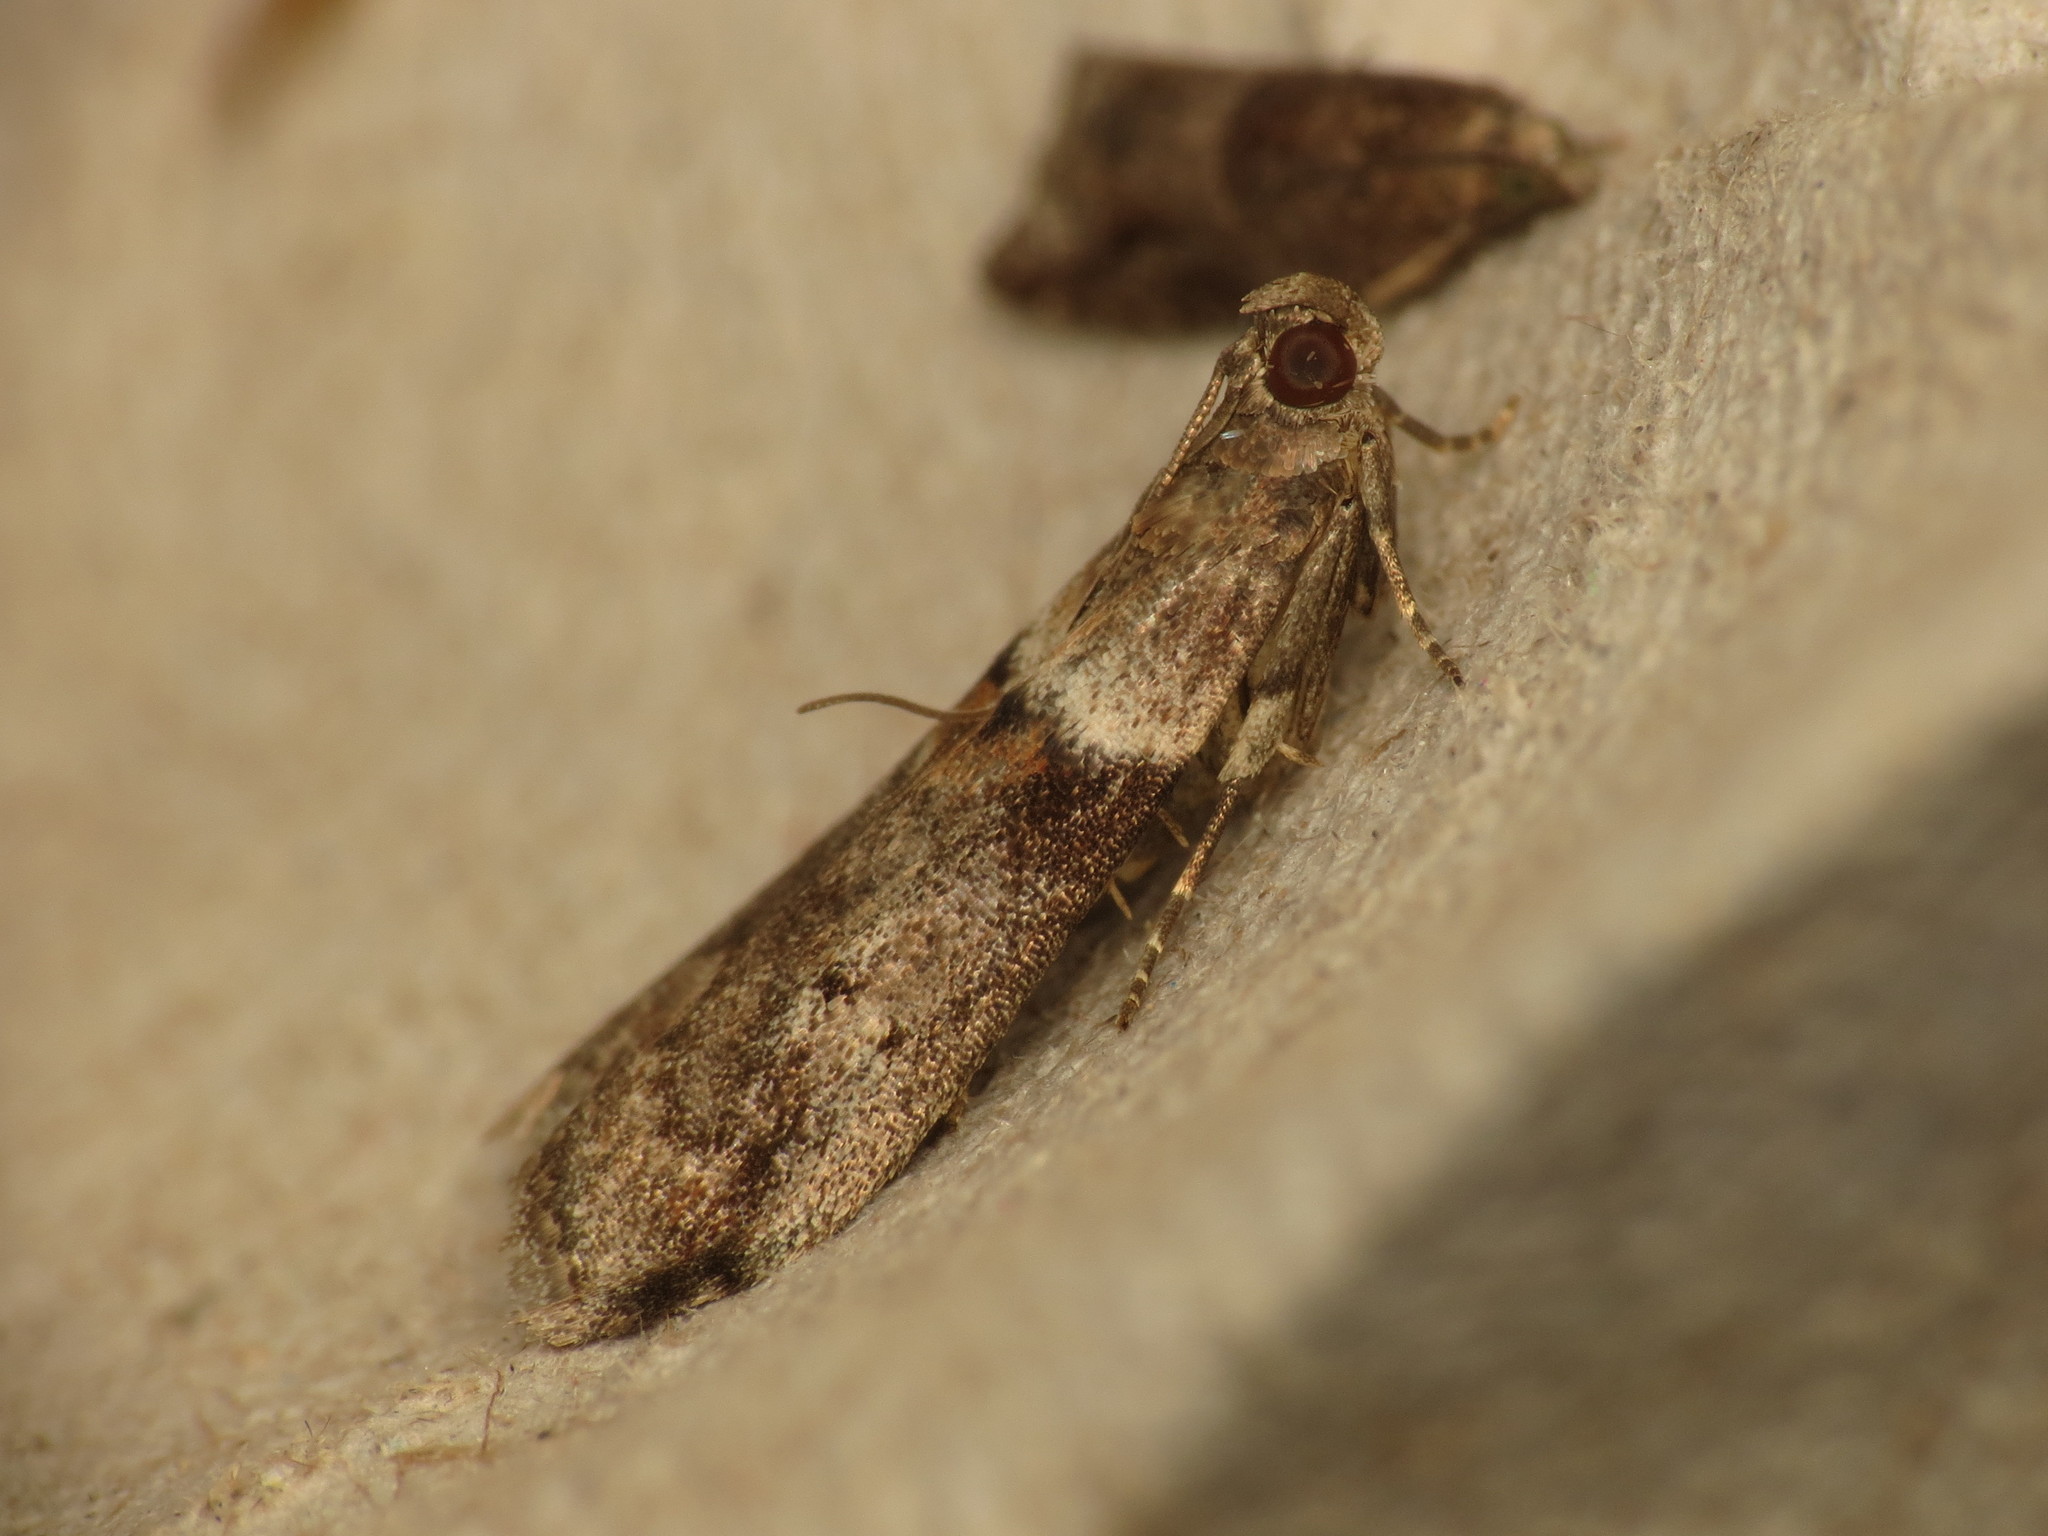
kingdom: Animalia
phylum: Arthropoda
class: Insecta
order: Lepidoptera
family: Pyralidae
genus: Acrobasis
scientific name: Acrobasis consociella
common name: Broad-barred knot-horn
